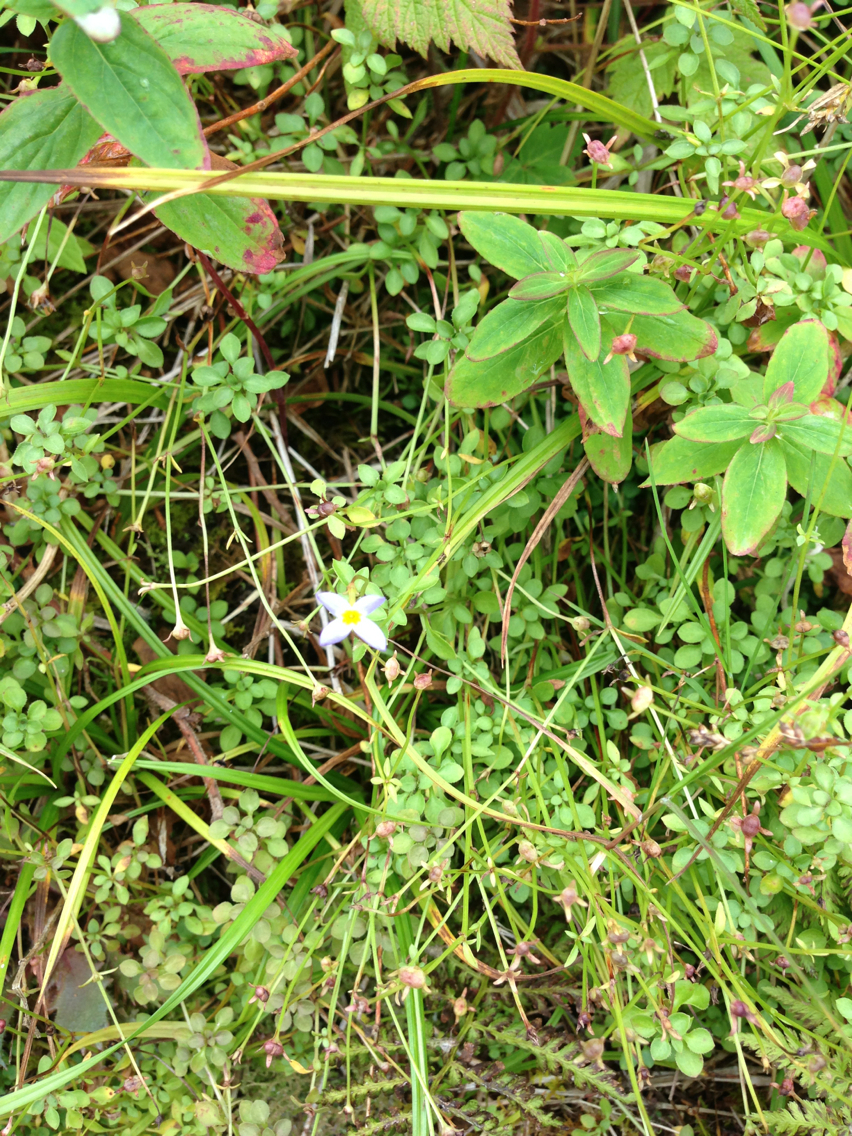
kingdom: Plantae
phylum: Tracheophyta
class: Magnoliopsida
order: Gentianales
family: Rubiaceae
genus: Houstonia
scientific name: Houstonia caerulea
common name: Bluets
